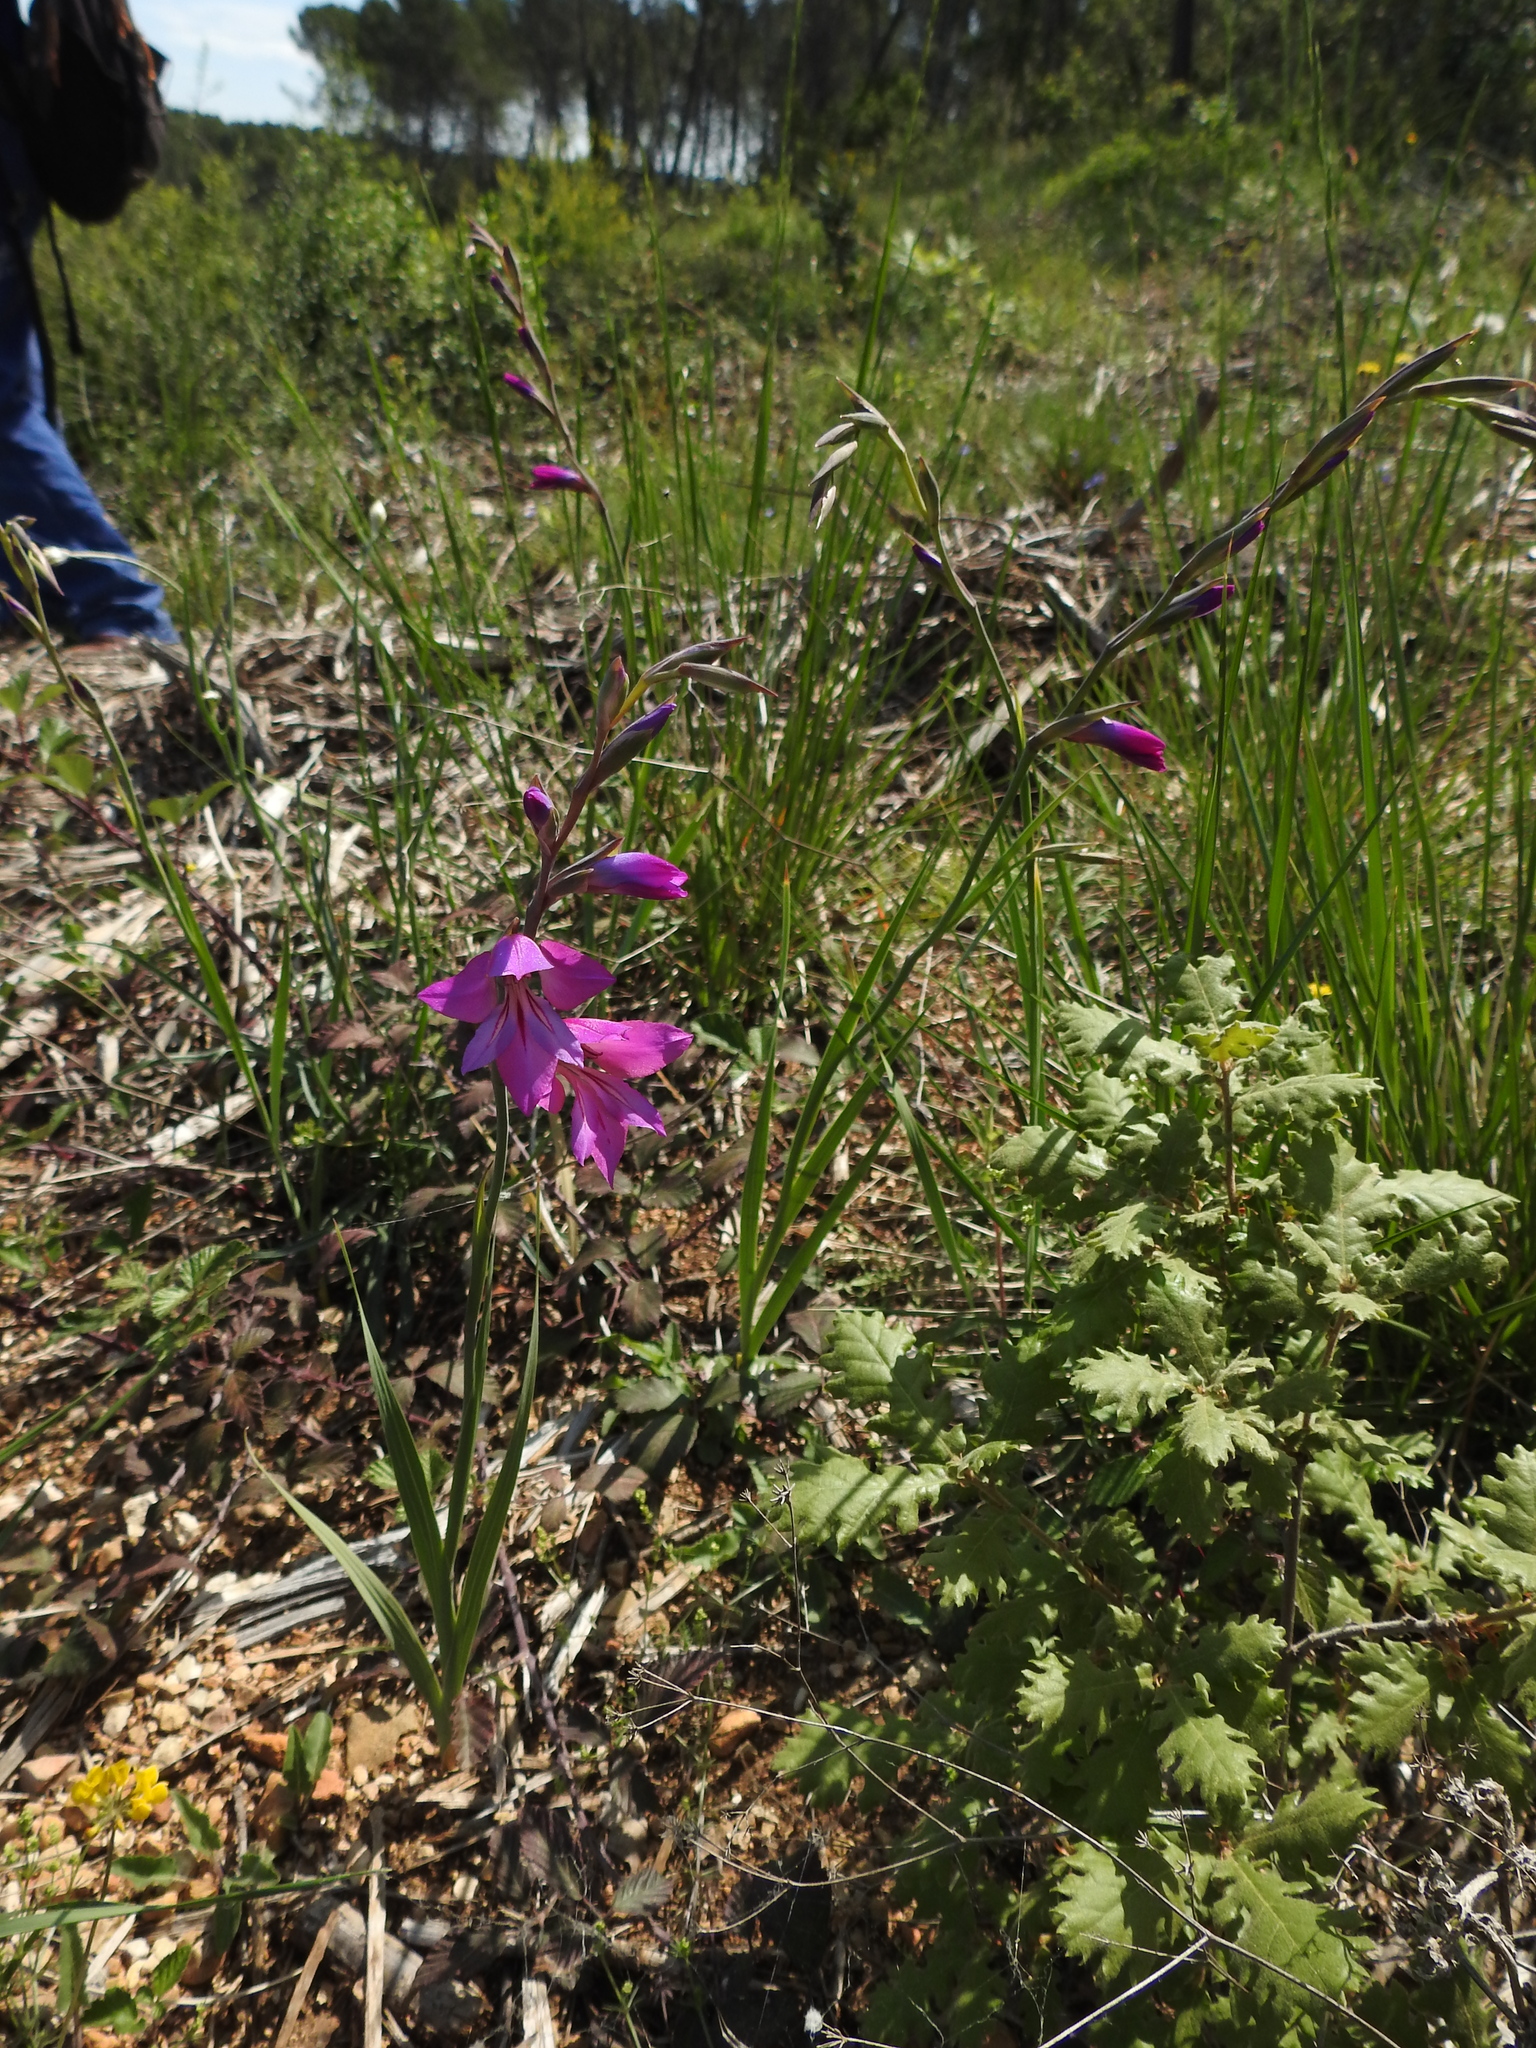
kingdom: Plantae
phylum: Tracheophyta
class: Liliopsida
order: Asparagales
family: Iridaceae
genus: Gladiolus
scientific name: Gladiolus dubius
